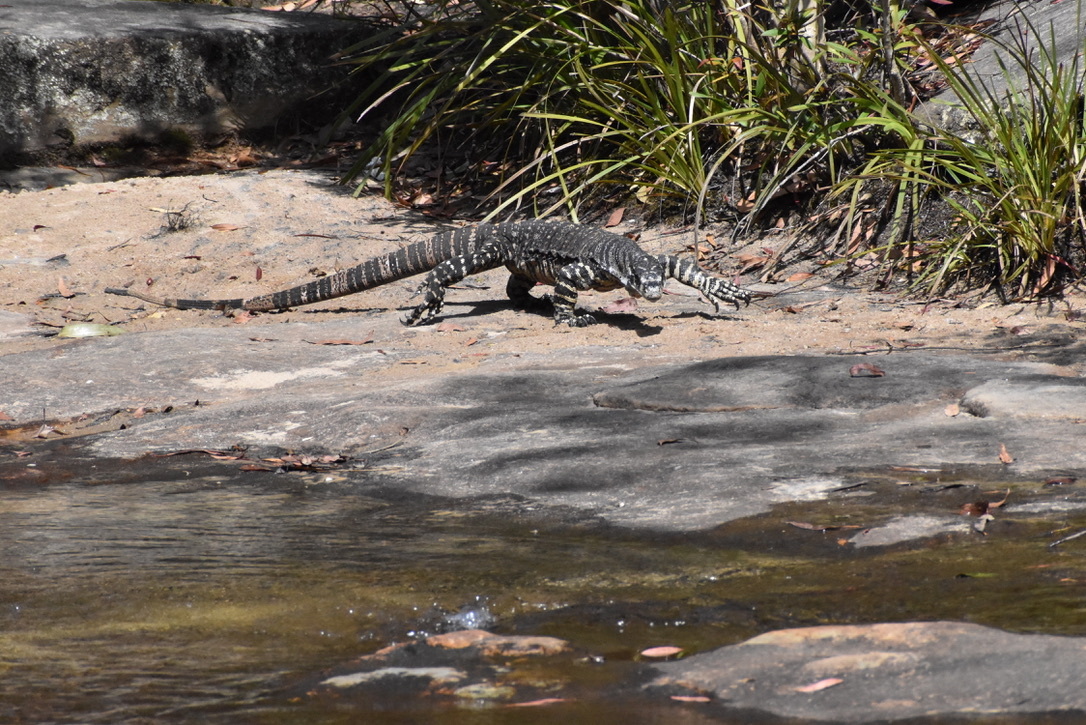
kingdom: Animalia
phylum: Chordata
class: Squamata
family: Varanidae
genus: Varanus
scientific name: Varanus varius
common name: Lace monitor
